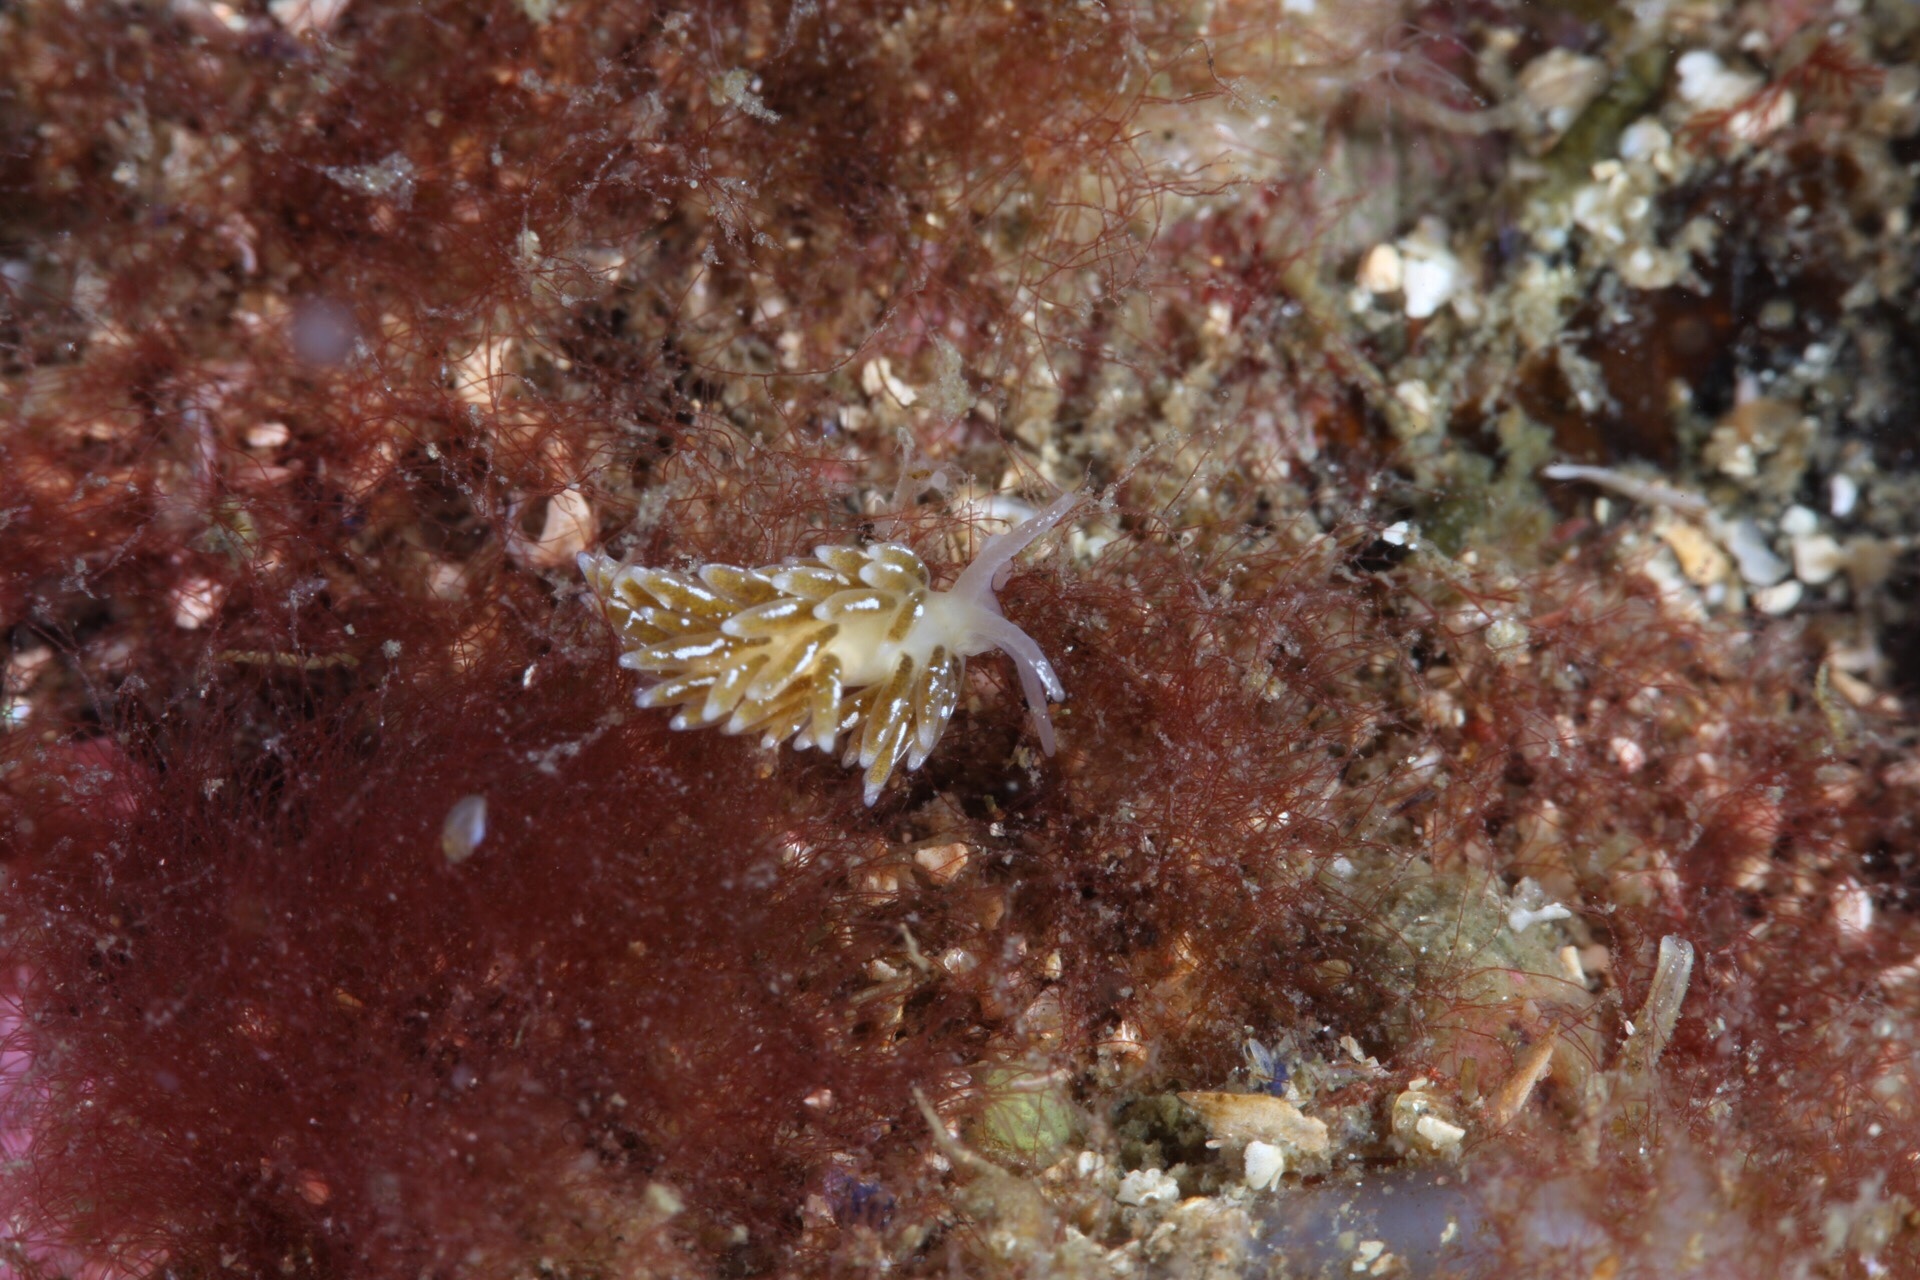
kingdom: Animalia
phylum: Mollusca
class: Gastropoda
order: Nudibranchia
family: Trinchesiidae
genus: Diaphoreolis
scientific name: Diaphoreolis viridis
